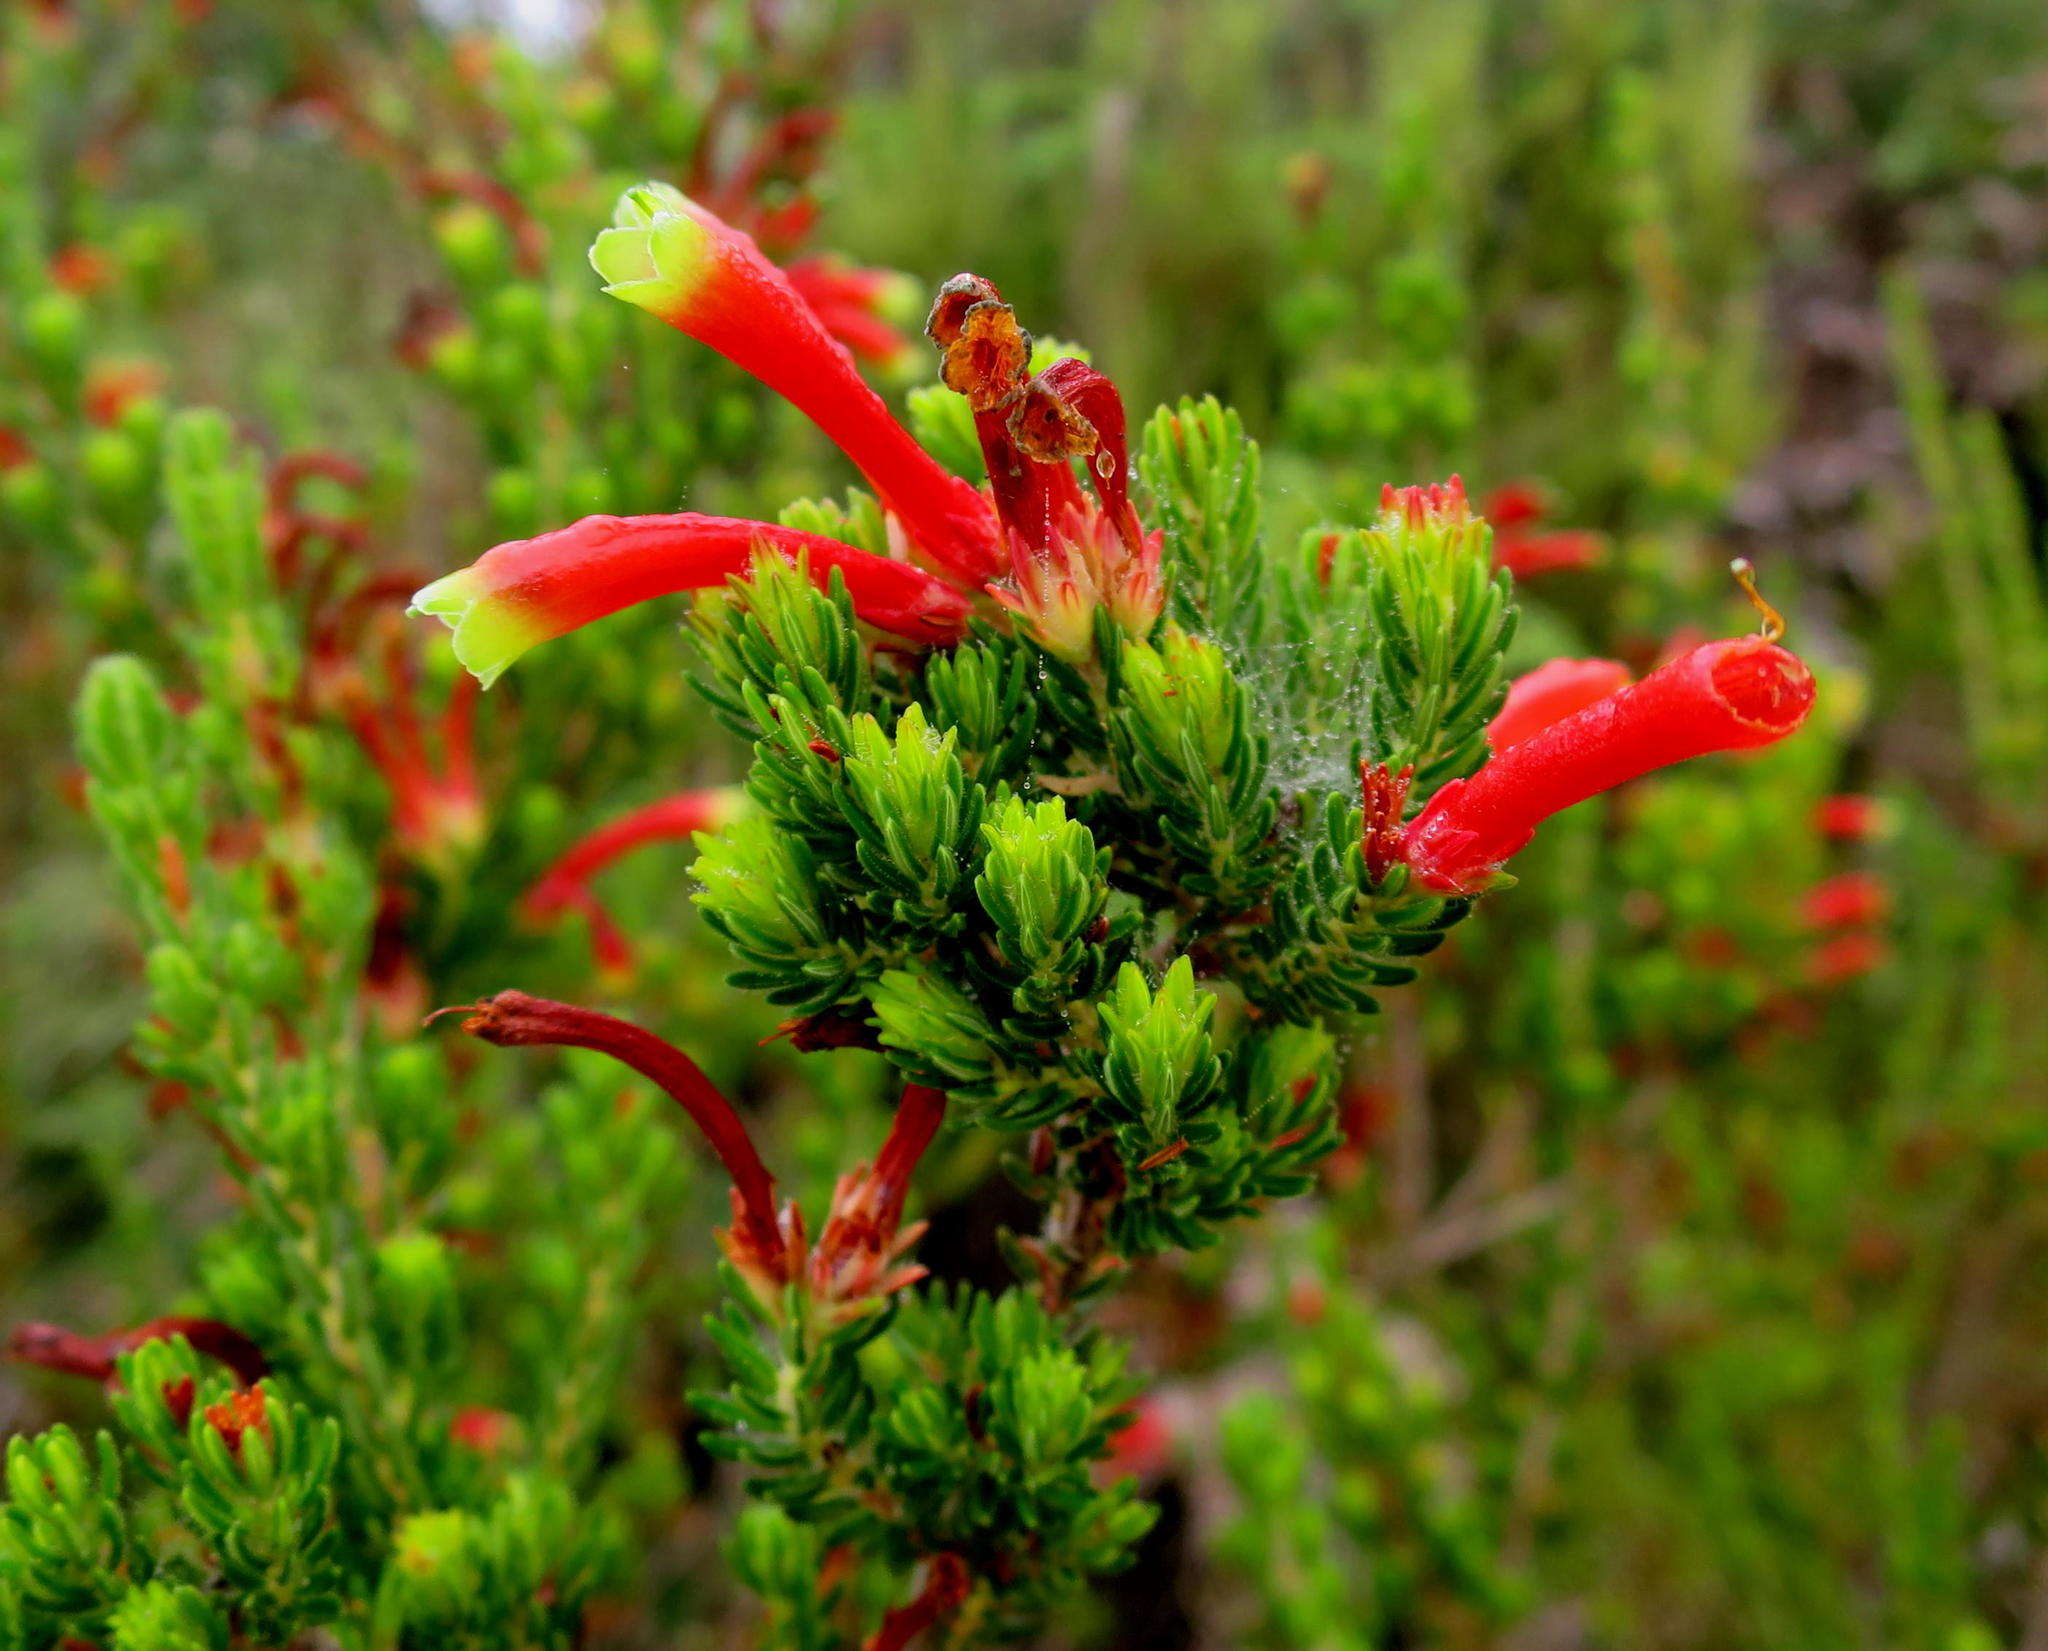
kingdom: Plantae
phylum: Tracheophyta
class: Magnoliopsida
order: Ericales
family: Ericaceae
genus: Erica
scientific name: Erica discolor
